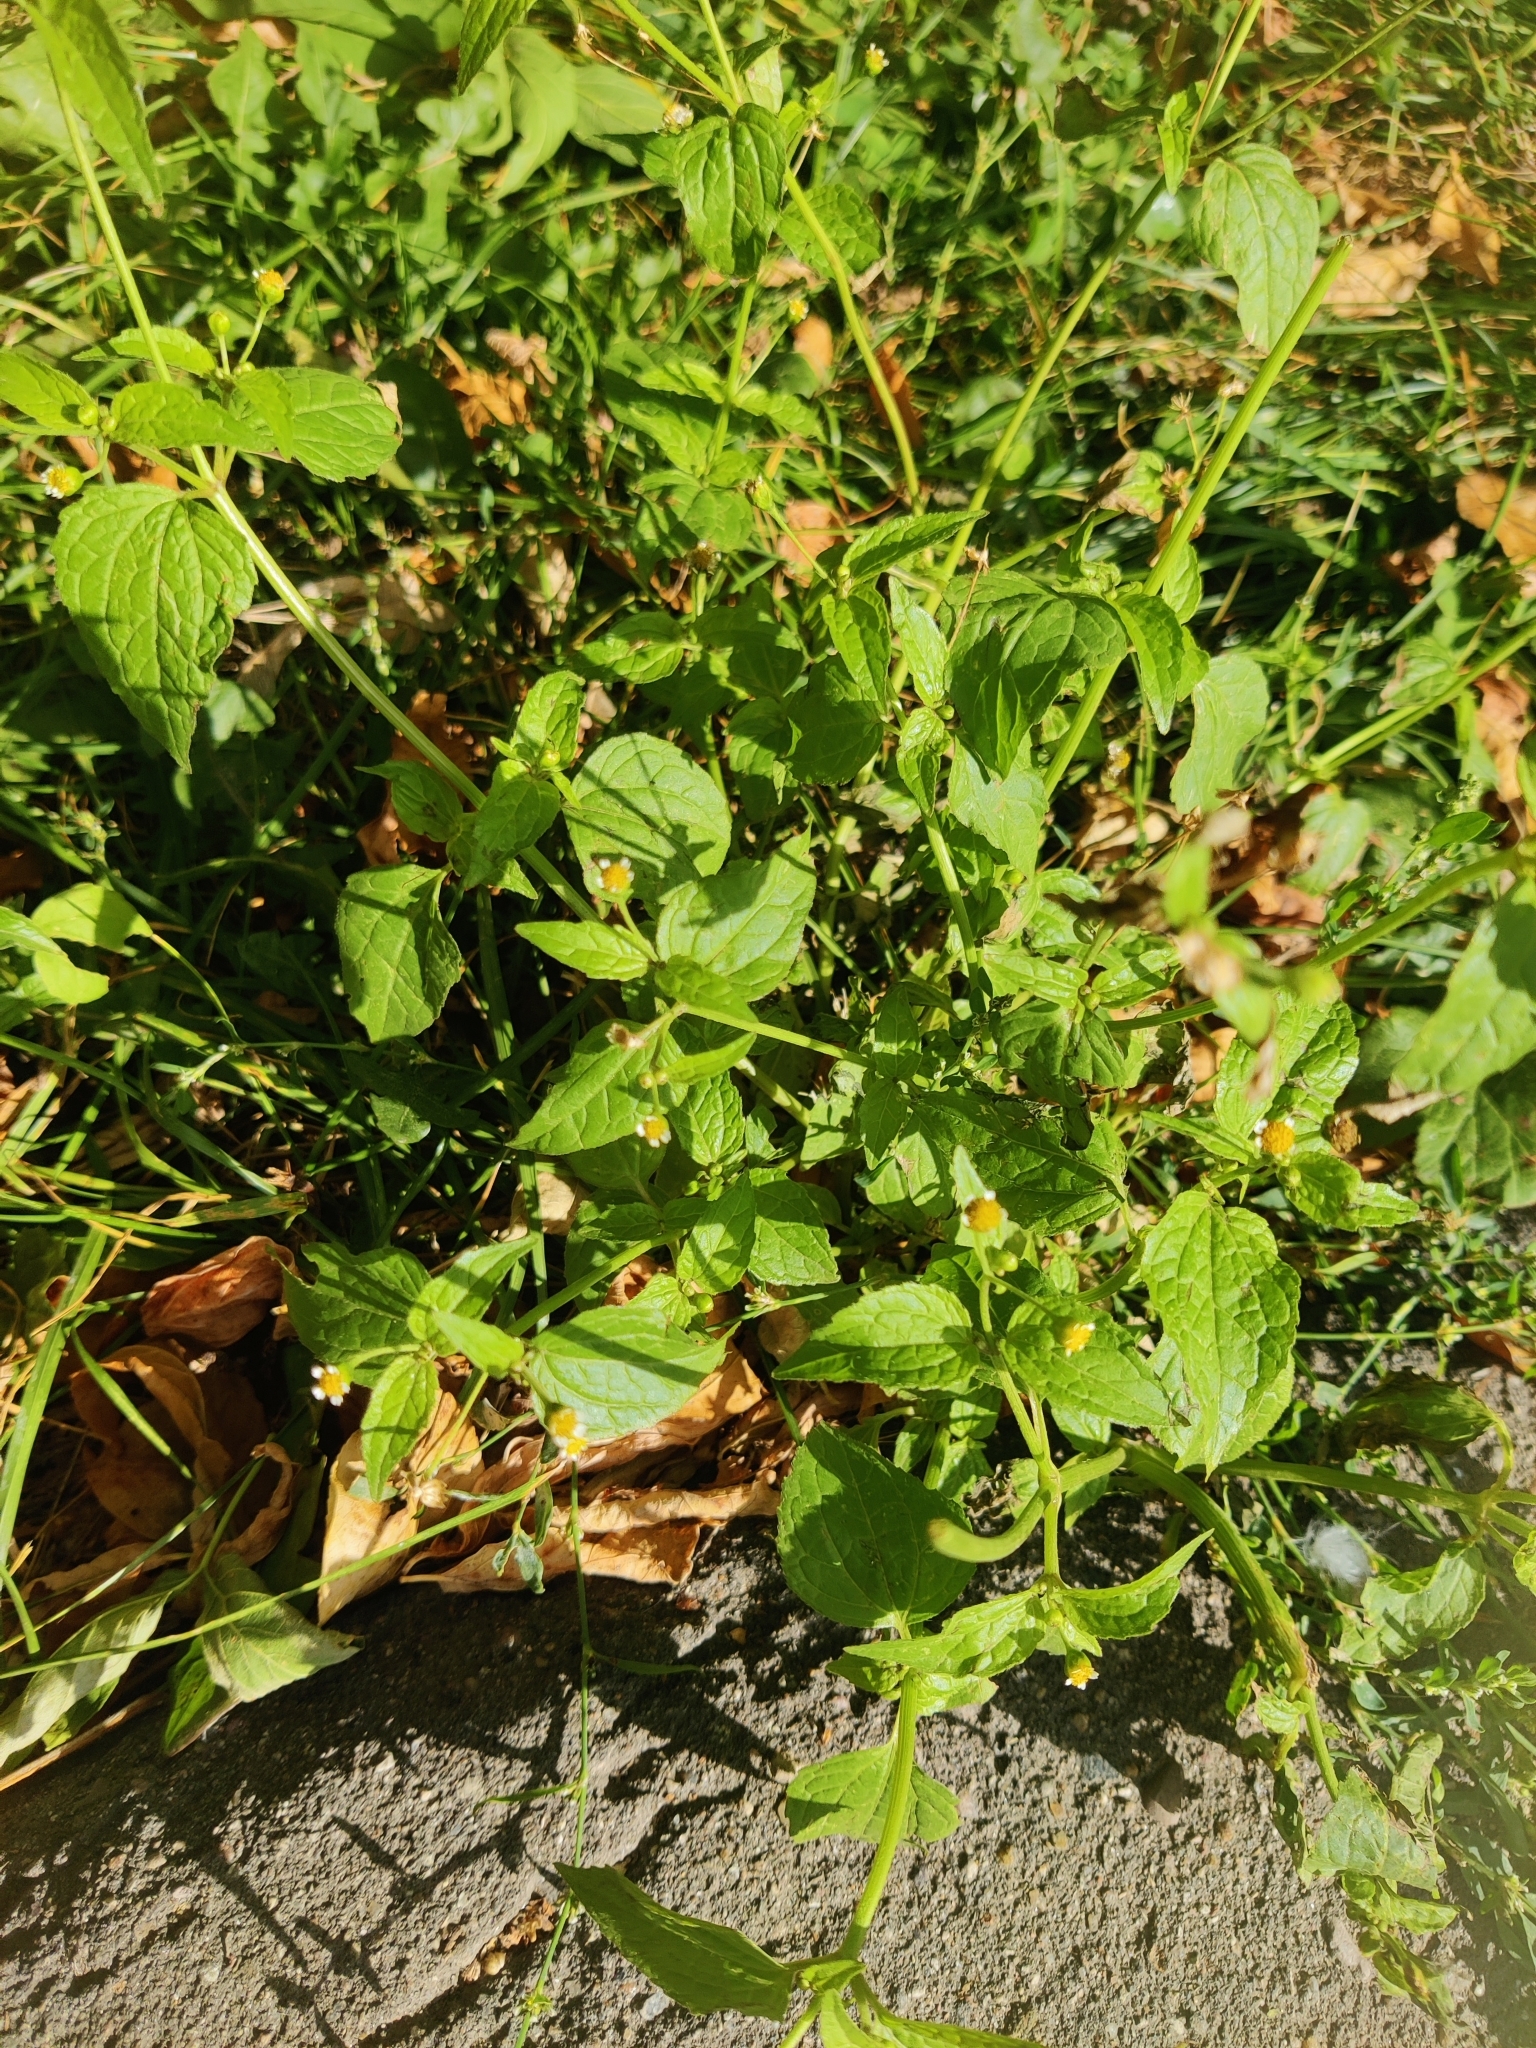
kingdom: Plantae
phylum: Tracheophyta
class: Magnoliopsida
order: Asterales
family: Asteraceae
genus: Galinsoga
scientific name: Galinsoga parviflora
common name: Gallant soldier
